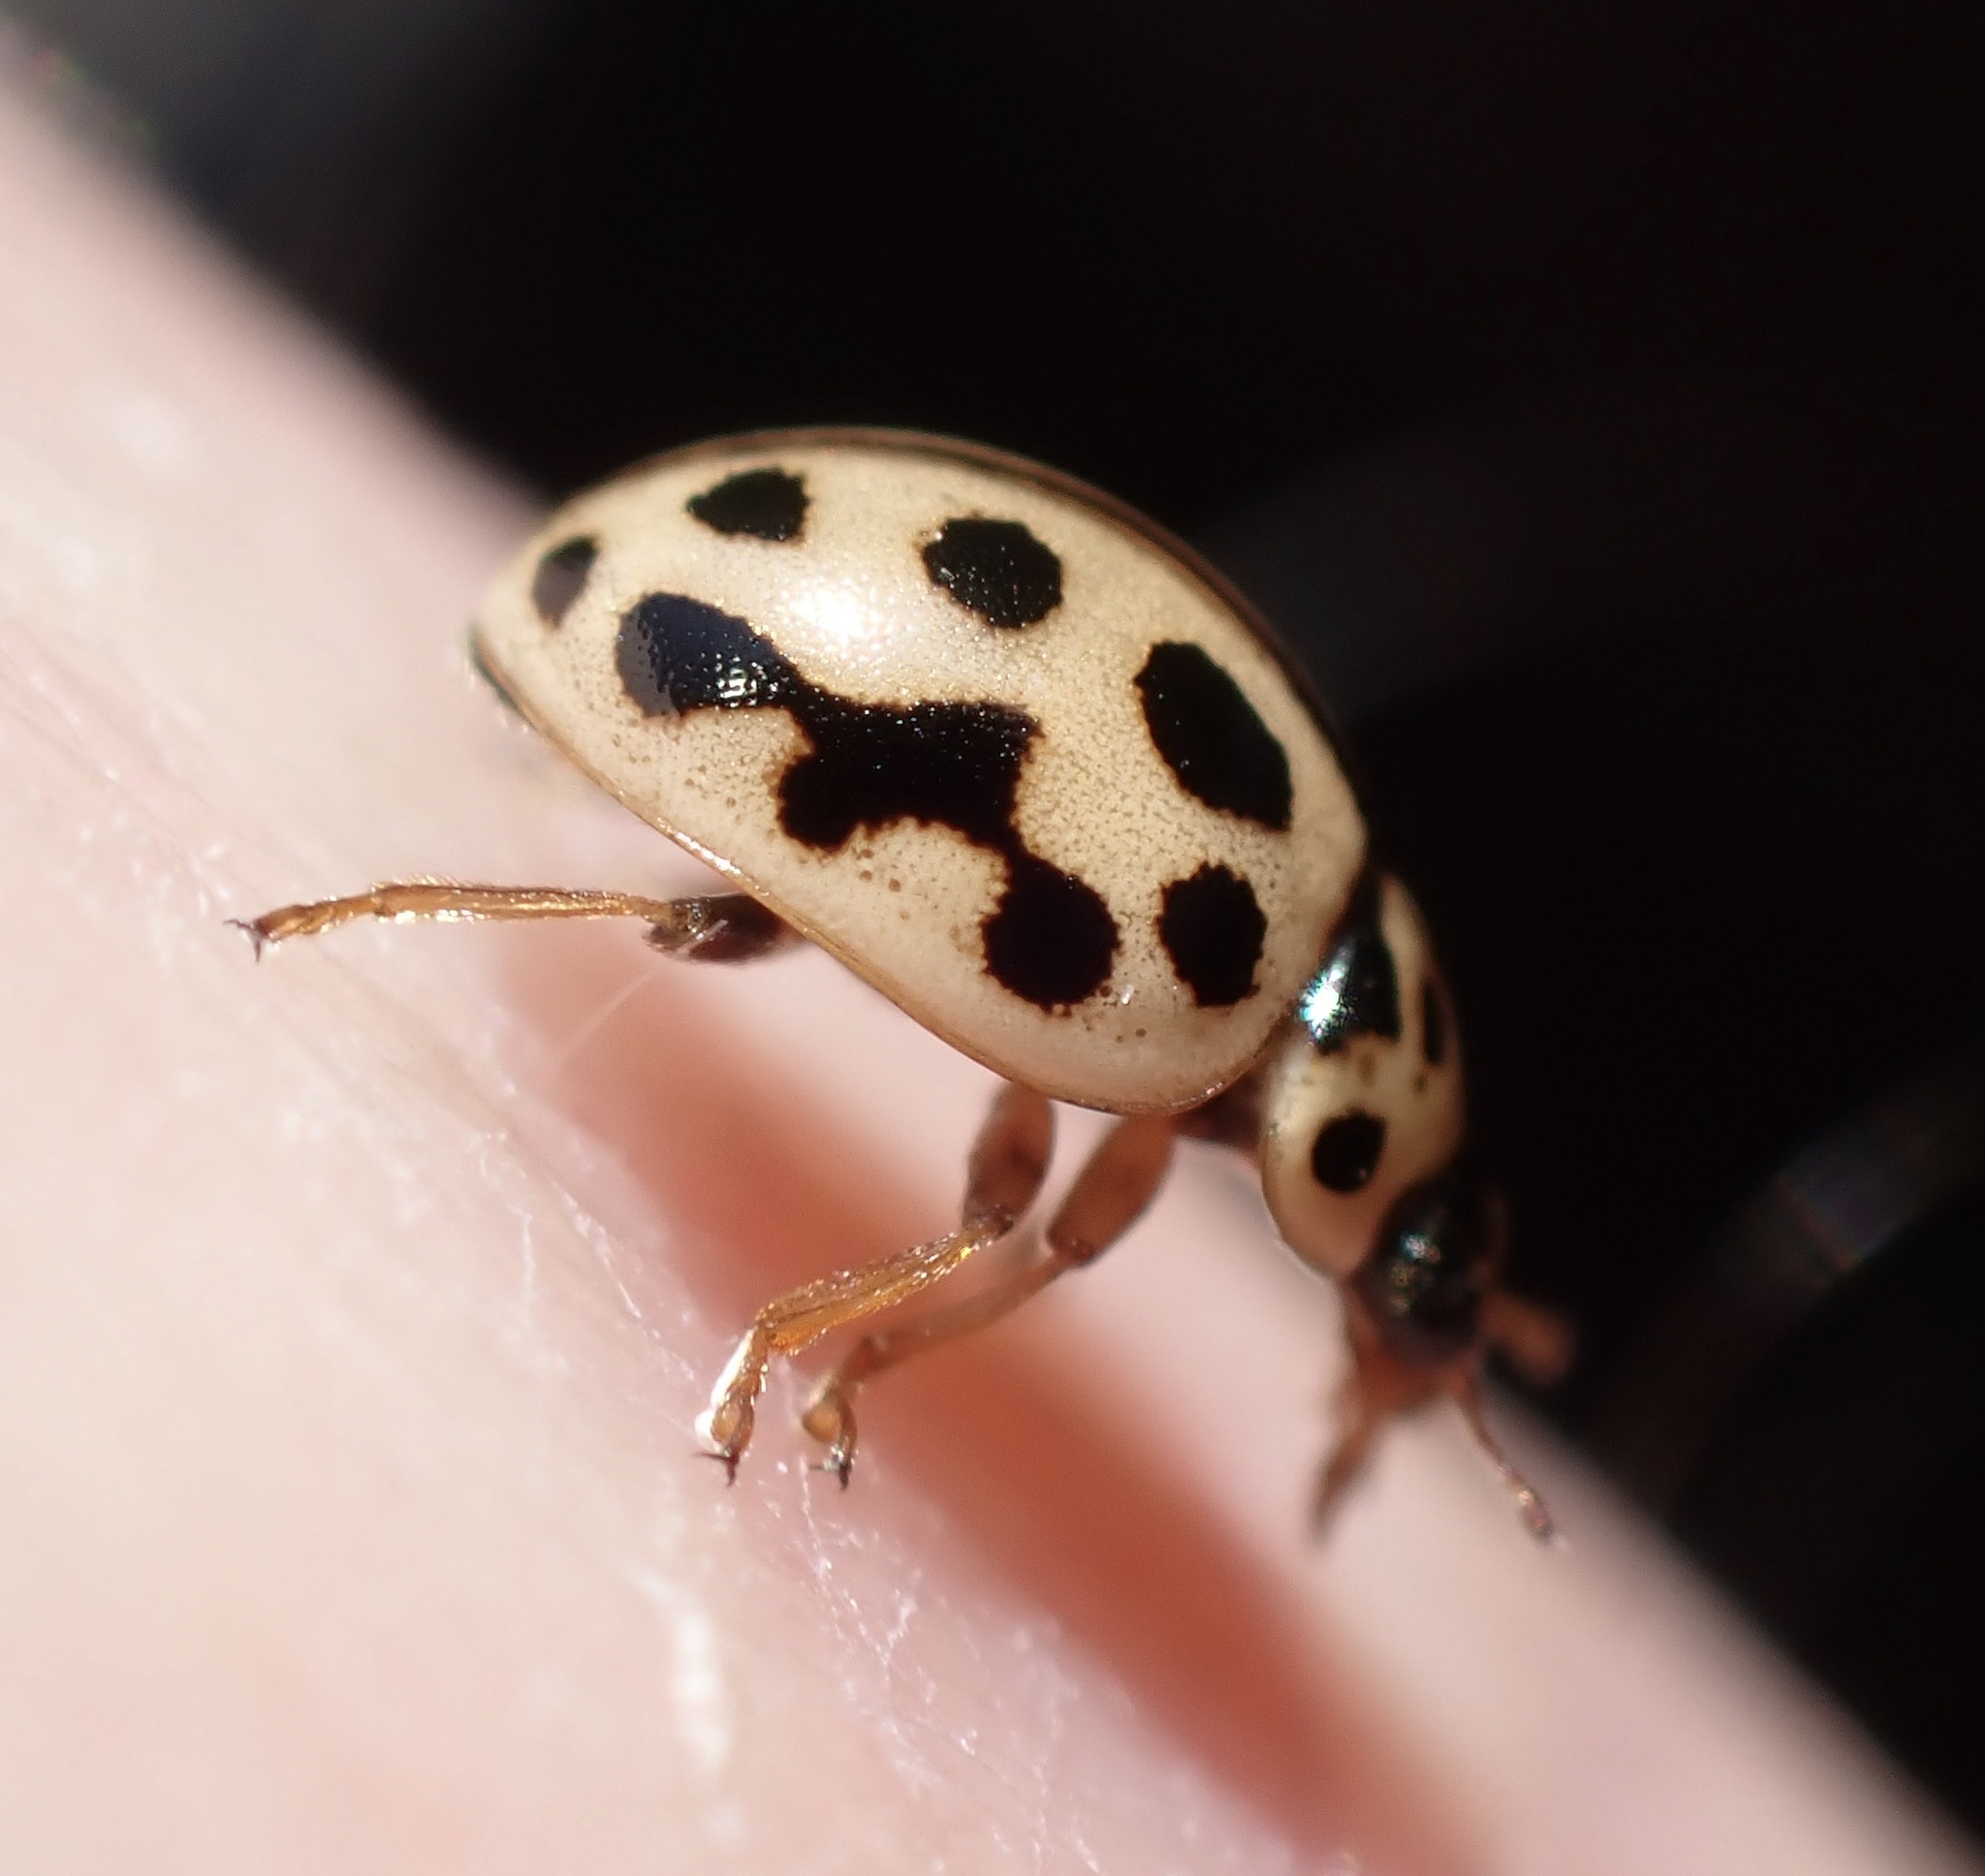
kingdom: Animalia
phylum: Arthropoda
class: Insecta
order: Coleoptera
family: Coccinellidae
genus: Tytthaspis
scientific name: Tytthaspis sedecimpunctata
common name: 16-spot ladybird
